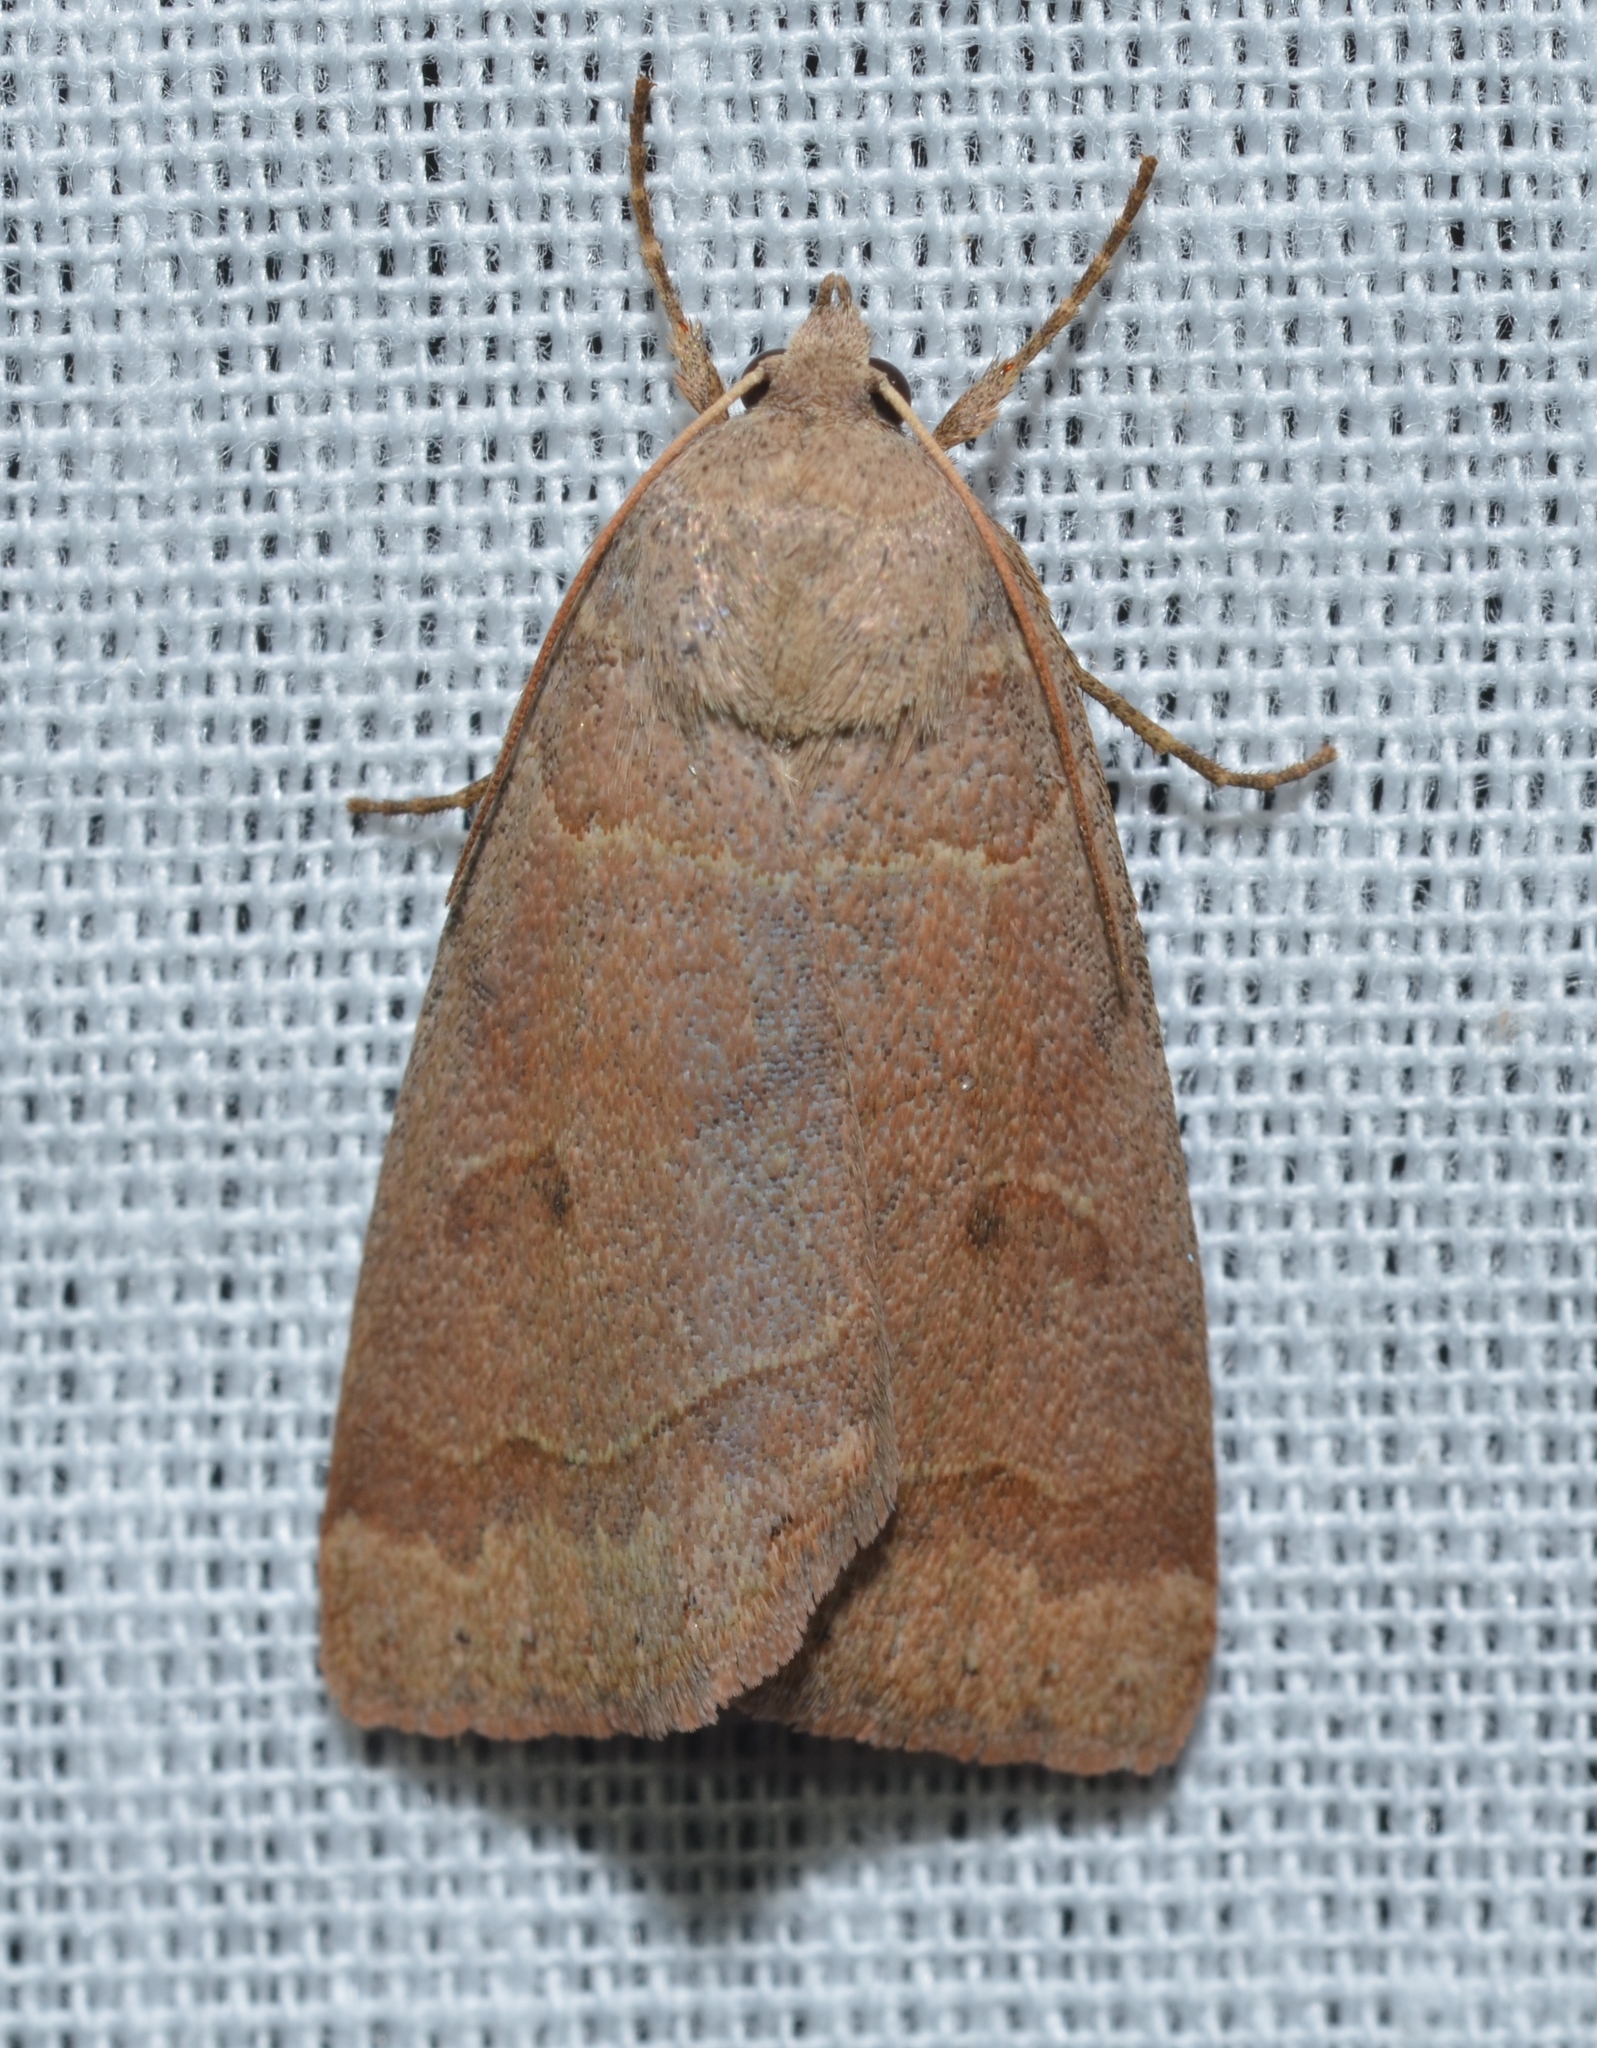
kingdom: Animalia
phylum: Arthropoda
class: Insecta
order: Lepidoptera
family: Erebidae
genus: Phoberia
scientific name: Phoberia atomaris
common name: Common oak moth
